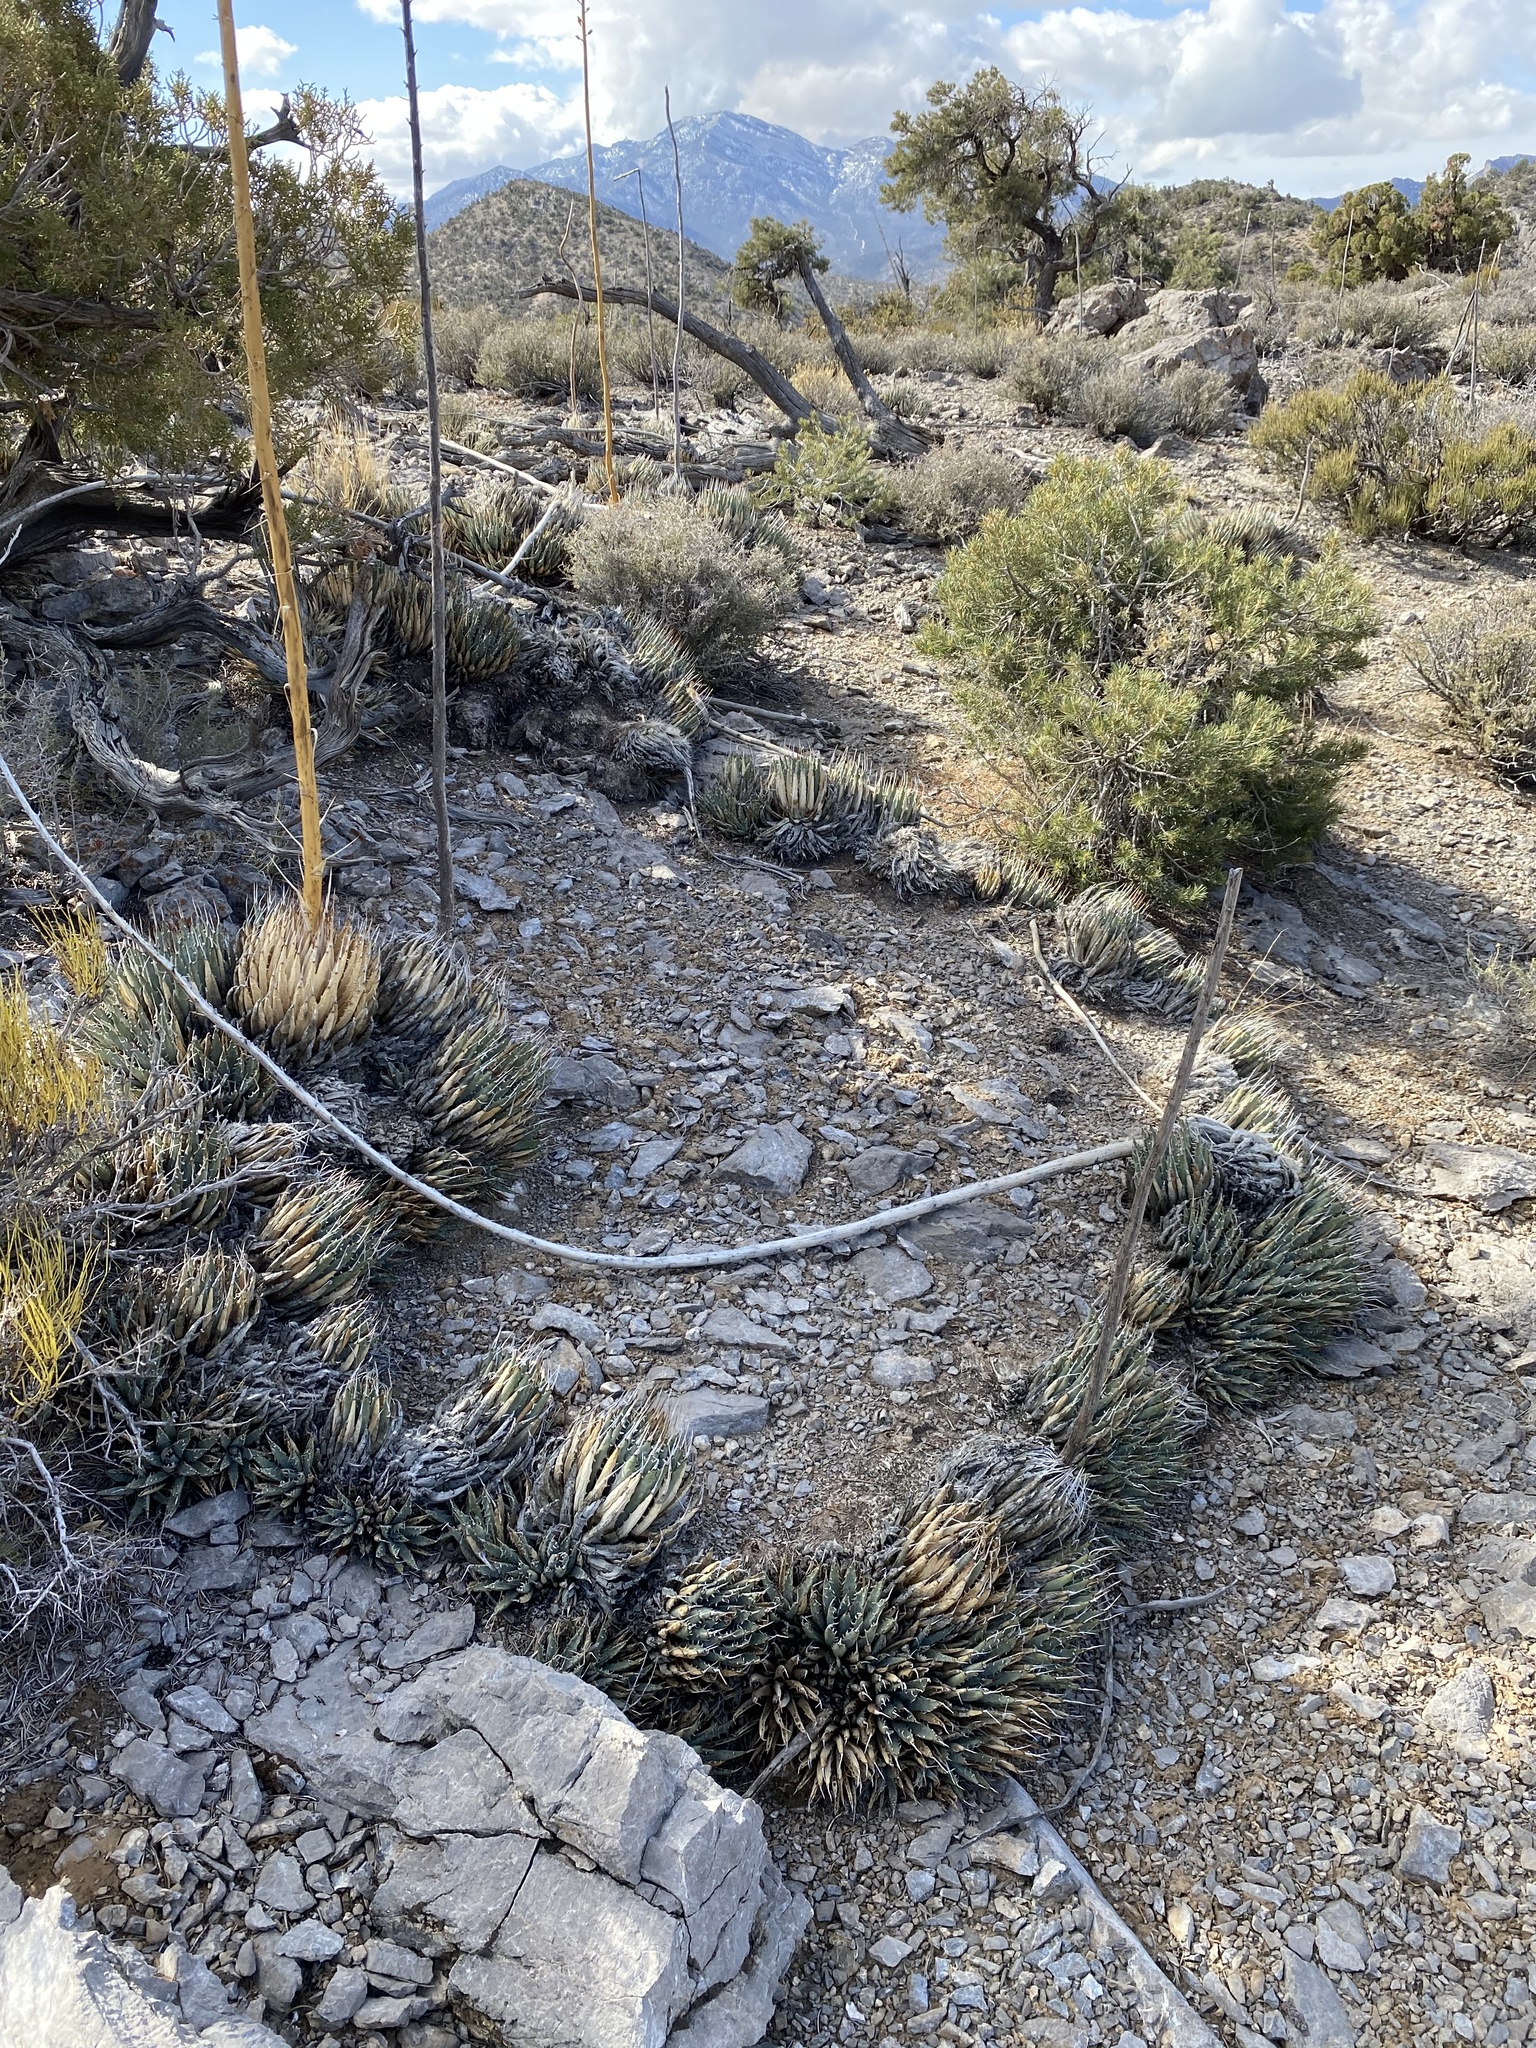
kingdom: Plantae
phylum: Tracheophyta
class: Liliopsida
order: Asparagales
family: Asparagaceae
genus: Agave
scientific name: Agave utahensis
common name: Utah agave
